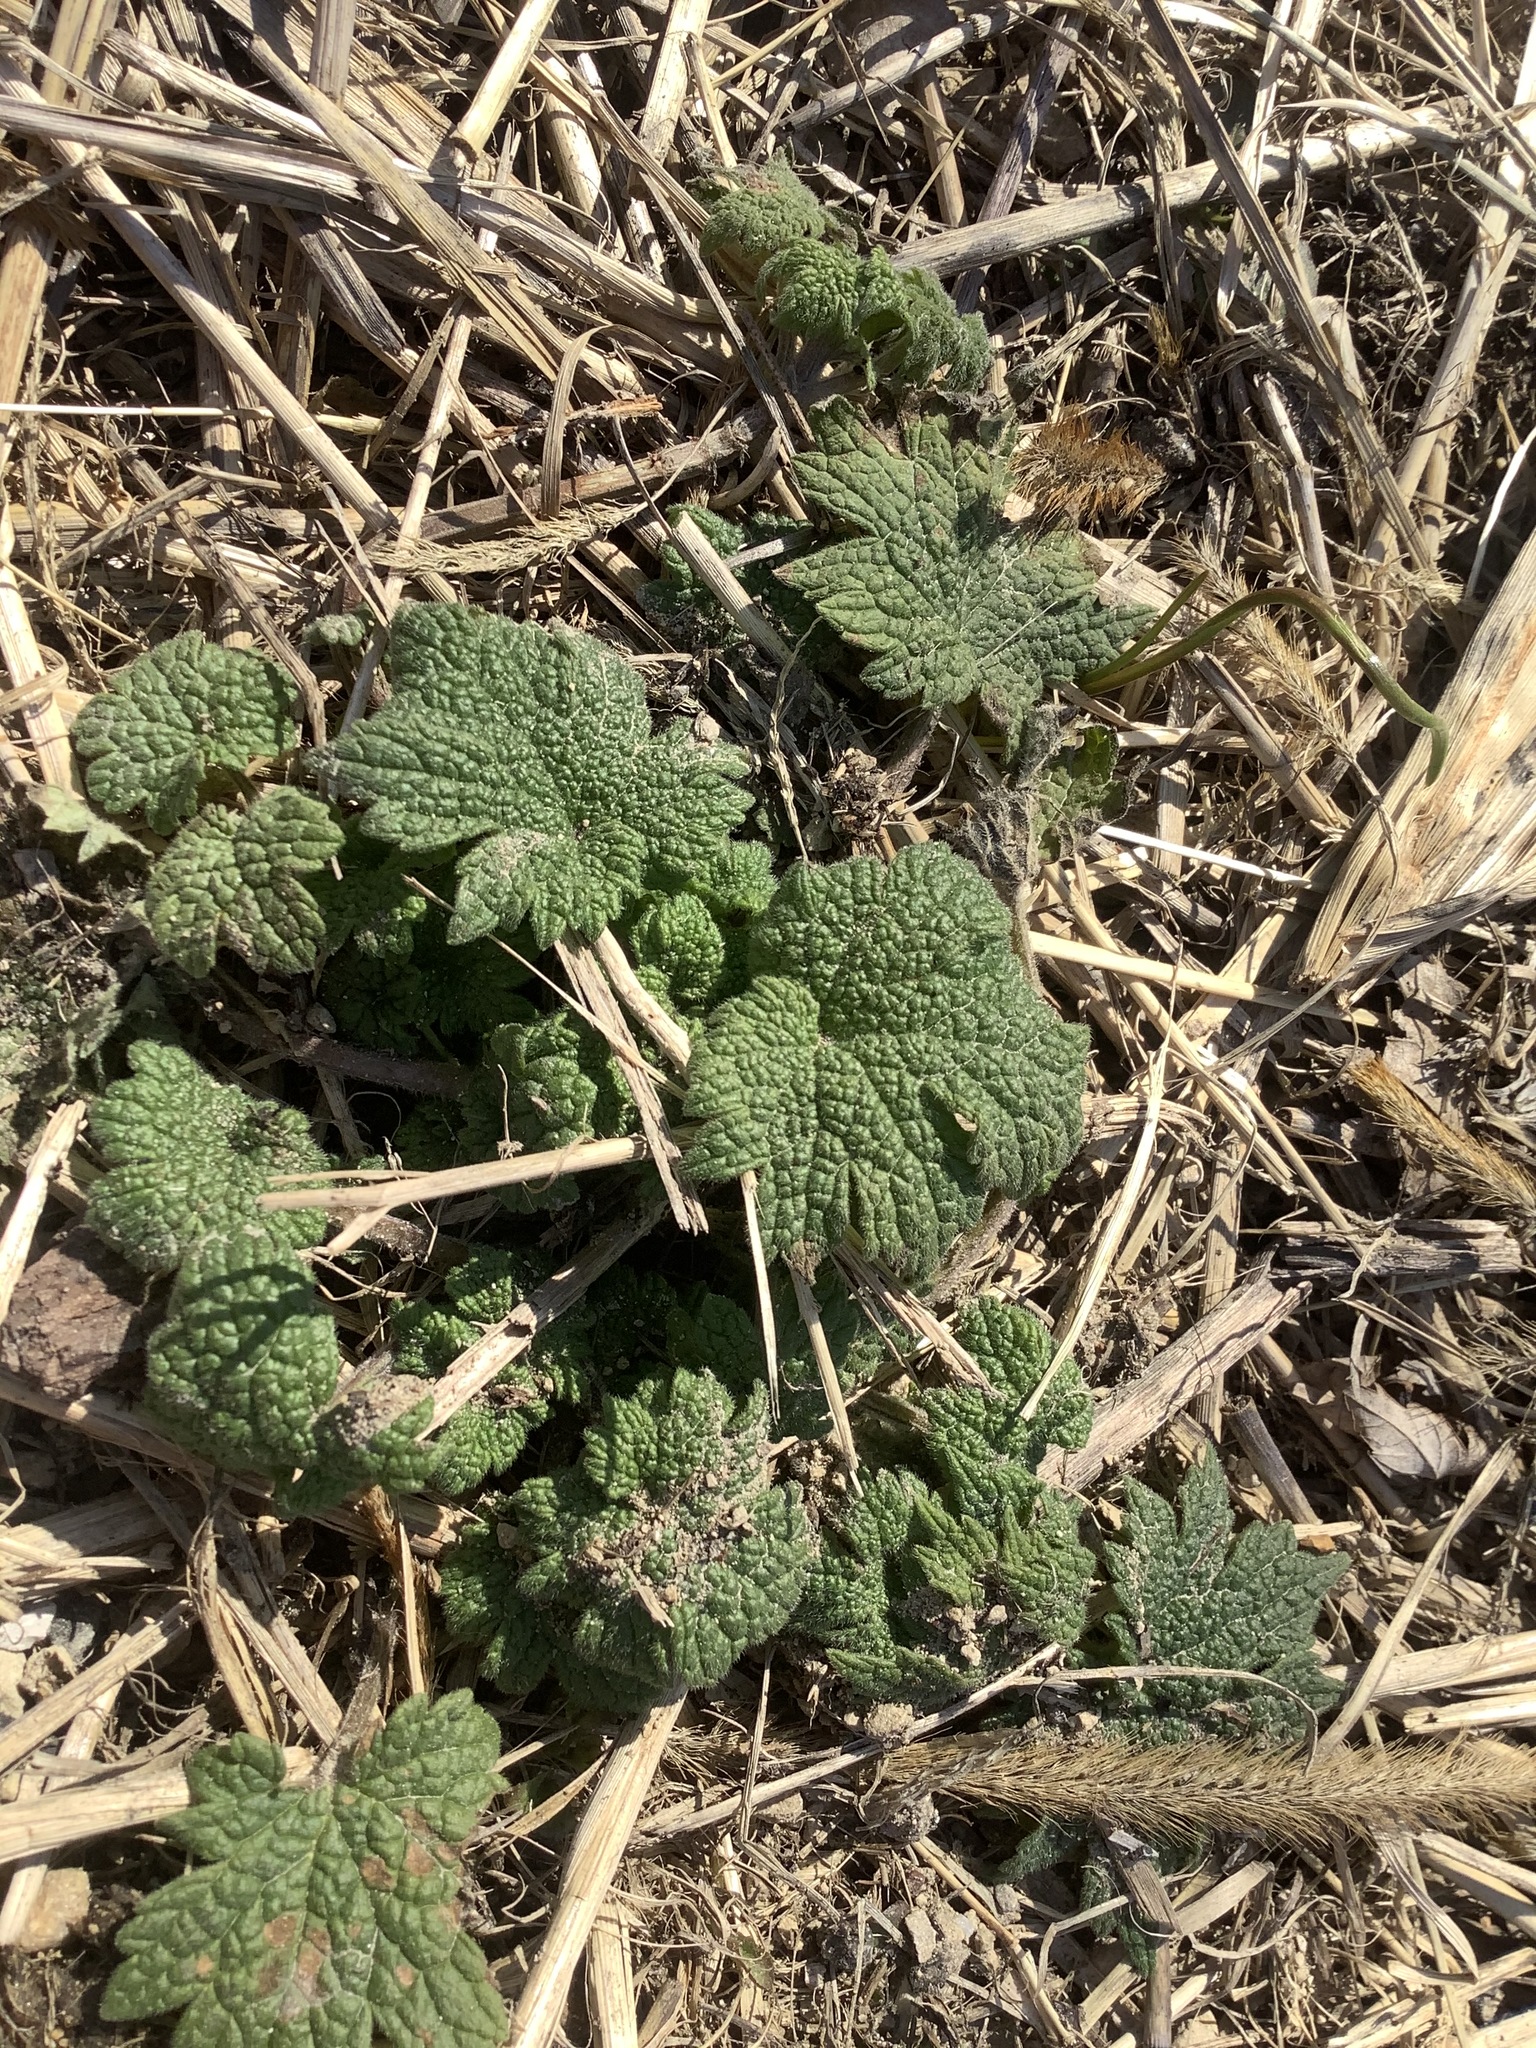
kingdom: Plantae
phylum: Tracheophyta
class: Magnoliopsida
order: Lamiales
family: Lamiaceae
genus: Leonurus
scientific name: Leonurus cardiaca
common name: Motherwort
